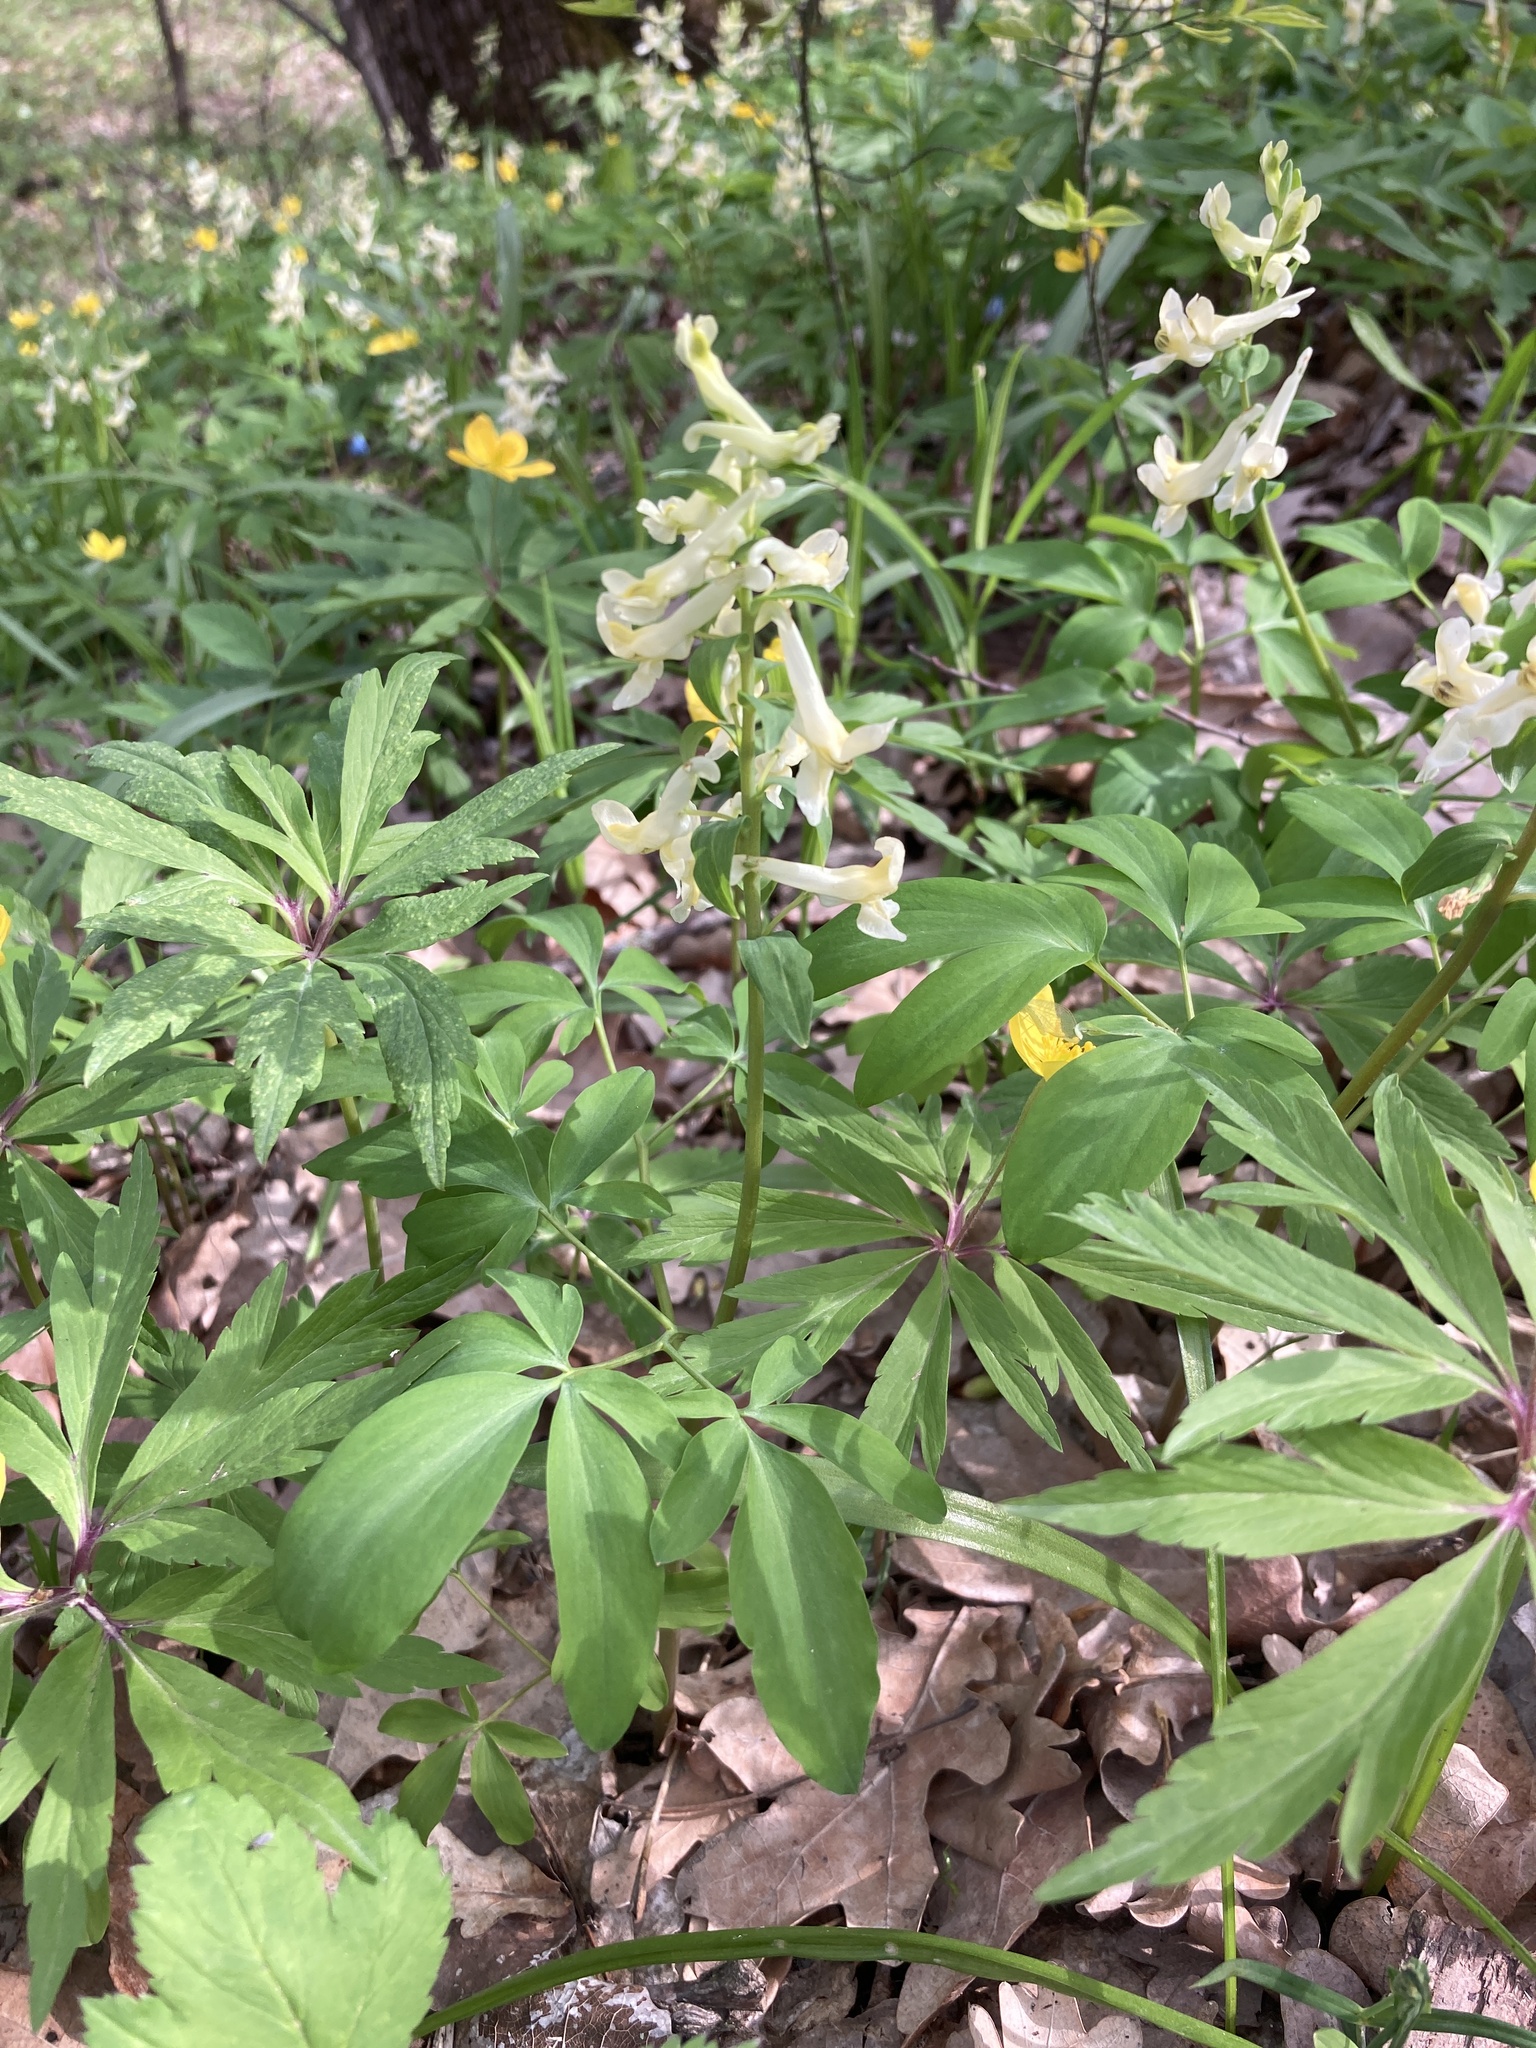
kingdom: Plantae
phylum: Tracheophyta
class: Magnoliopsida
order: Ranunculales
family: Papaveraceae
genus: Corydalis
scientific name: Corydalis cava
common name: Hollowroot
